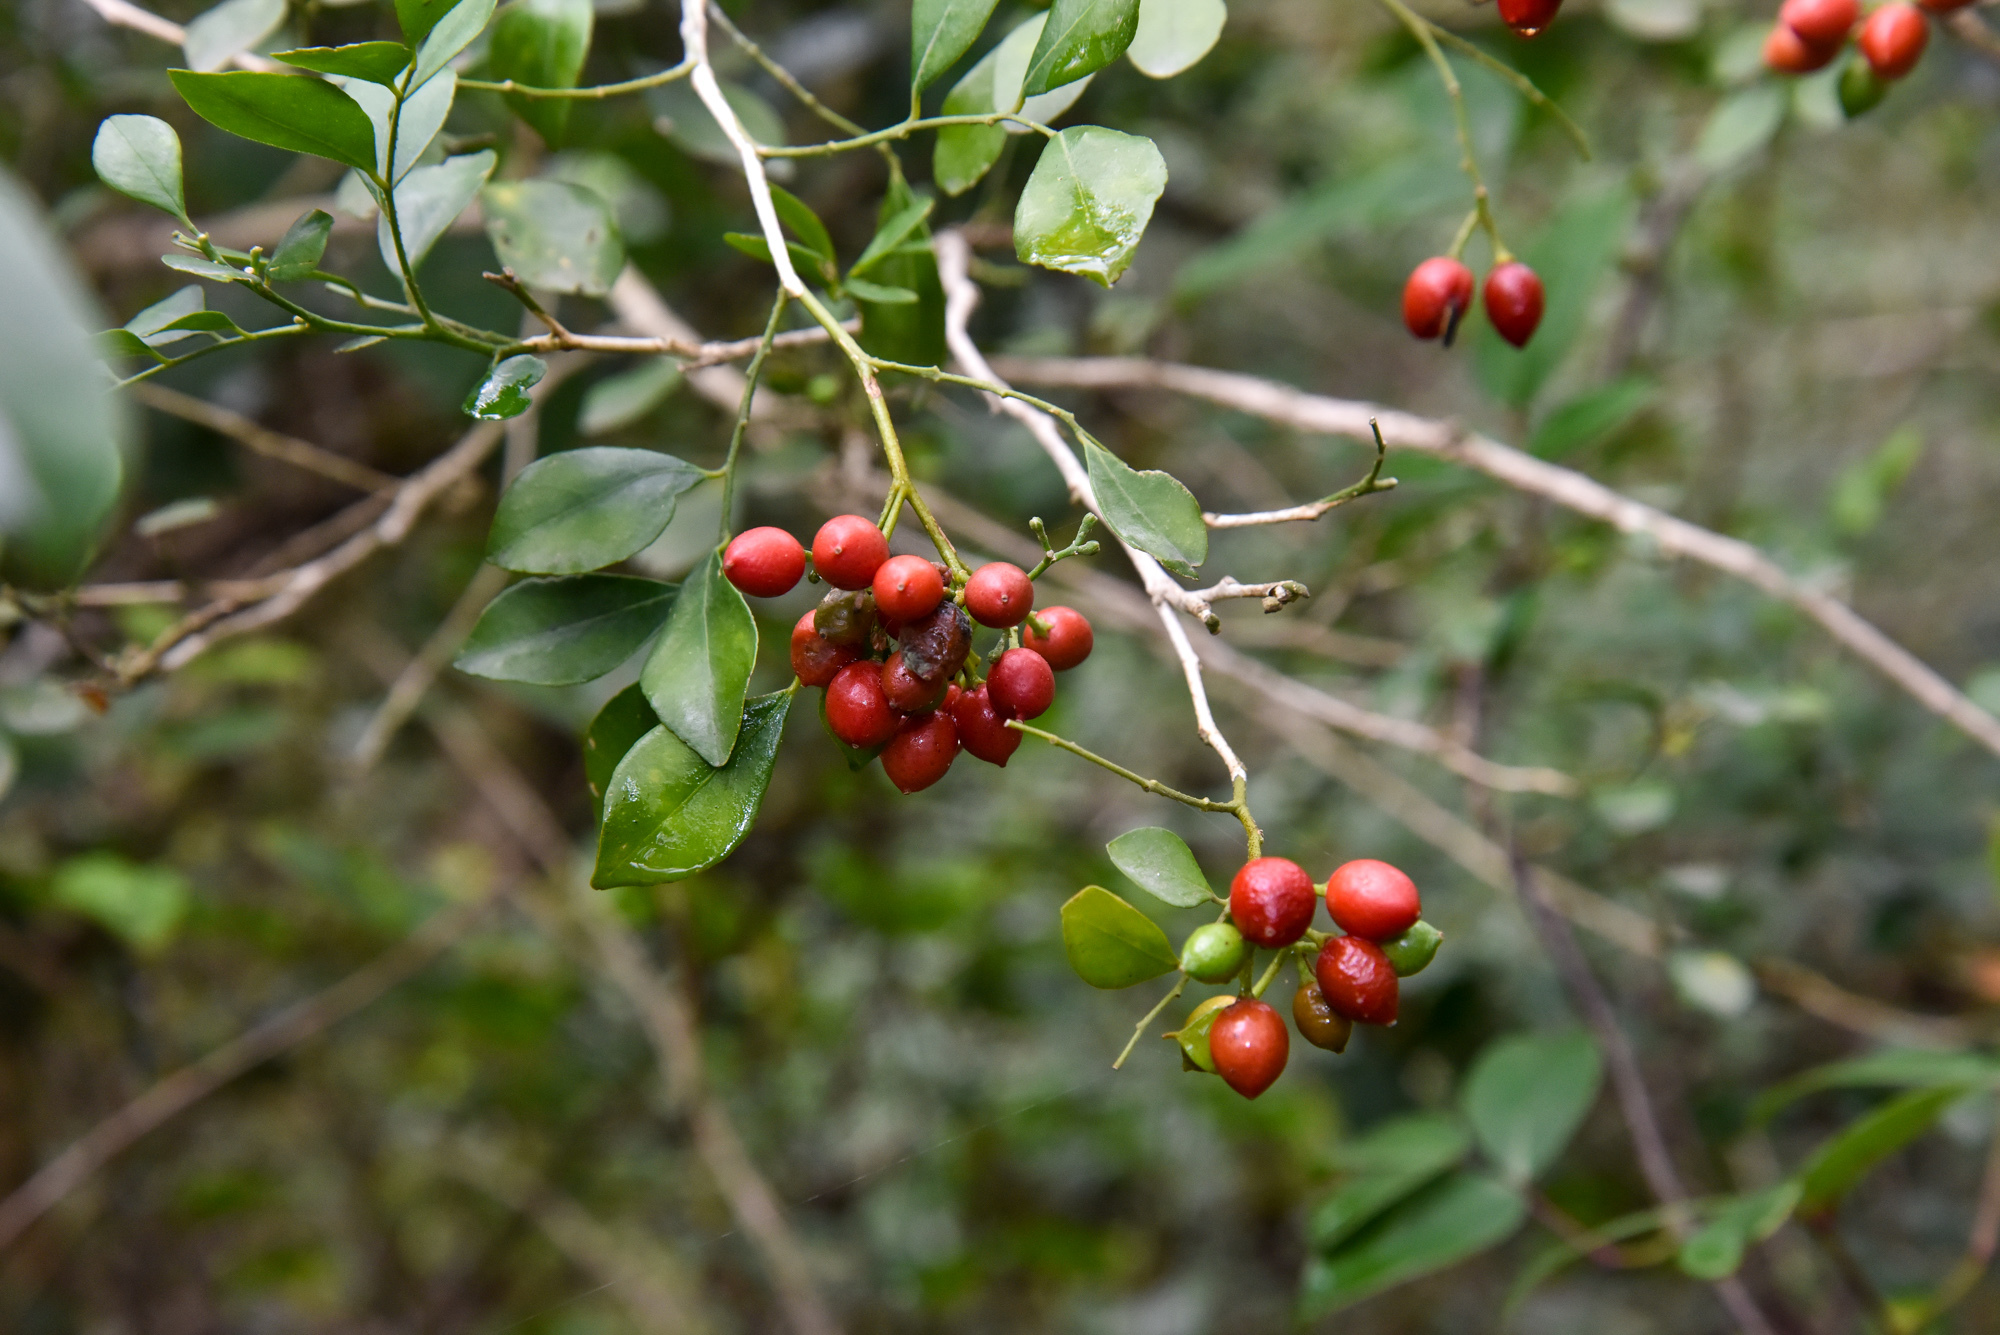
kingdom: Plantae
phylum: Tracheophyta
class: Magnoliopsida
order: Sapindales
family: Rutaceae
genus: Murraya
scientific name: Murraya paniculata
